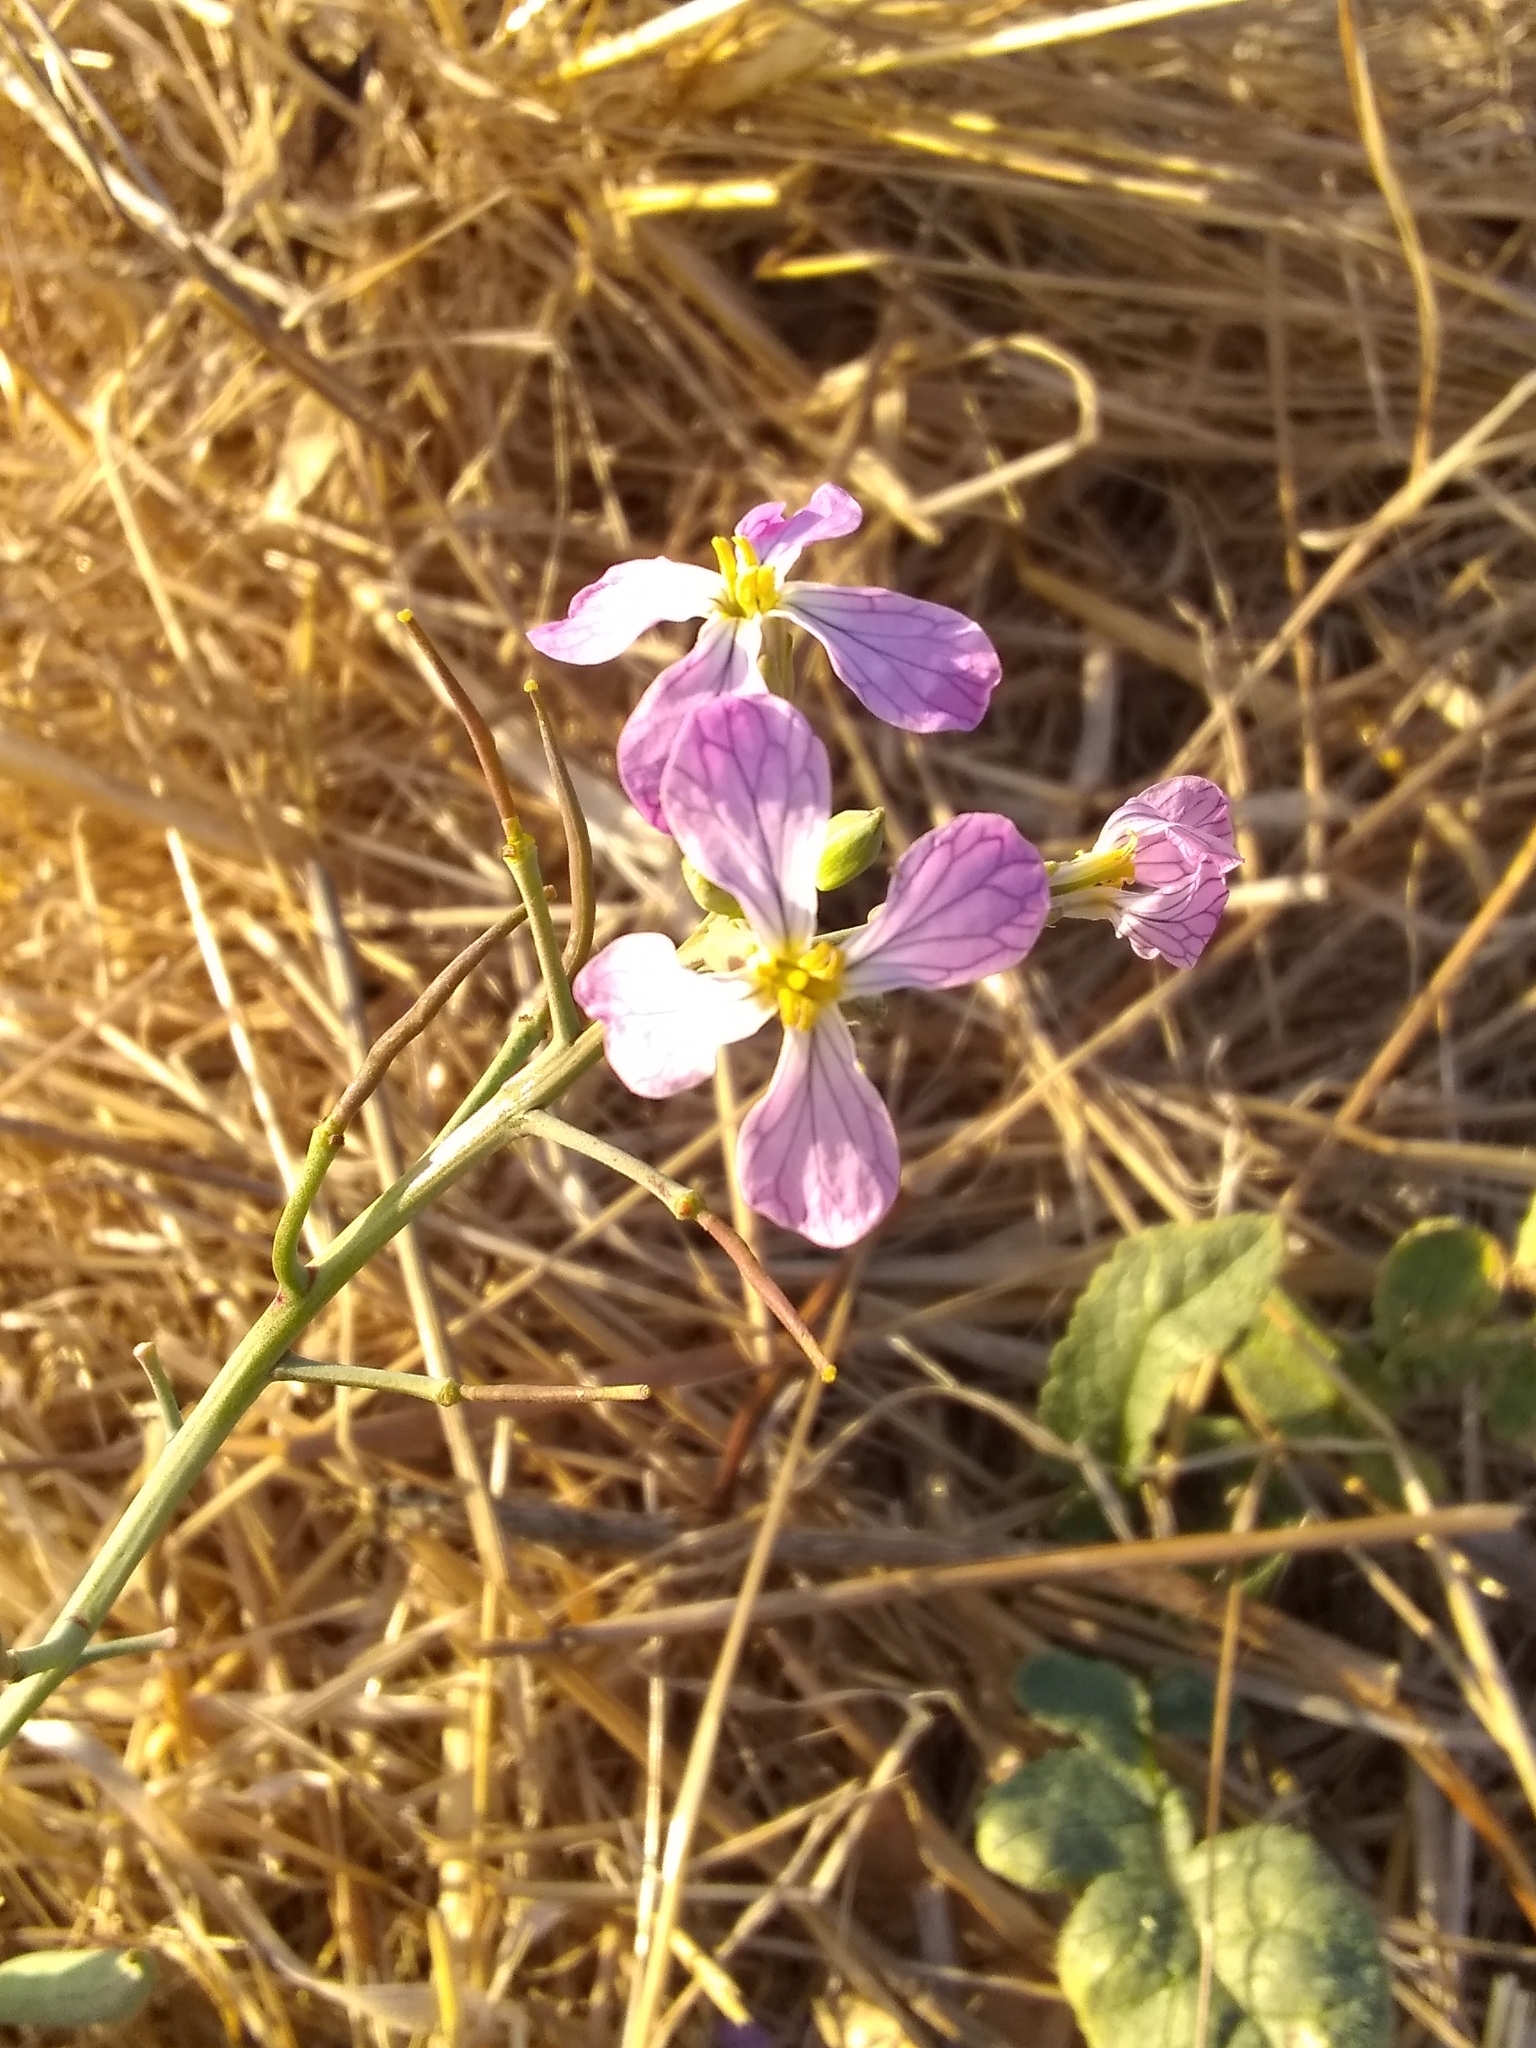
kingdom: Plantae
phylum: Tracheophyta
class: Magnoliopsida
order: Brassicales
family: Brassicaceae
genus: Raphanus
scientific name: Raphanus sativus
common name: Cultivated radish
